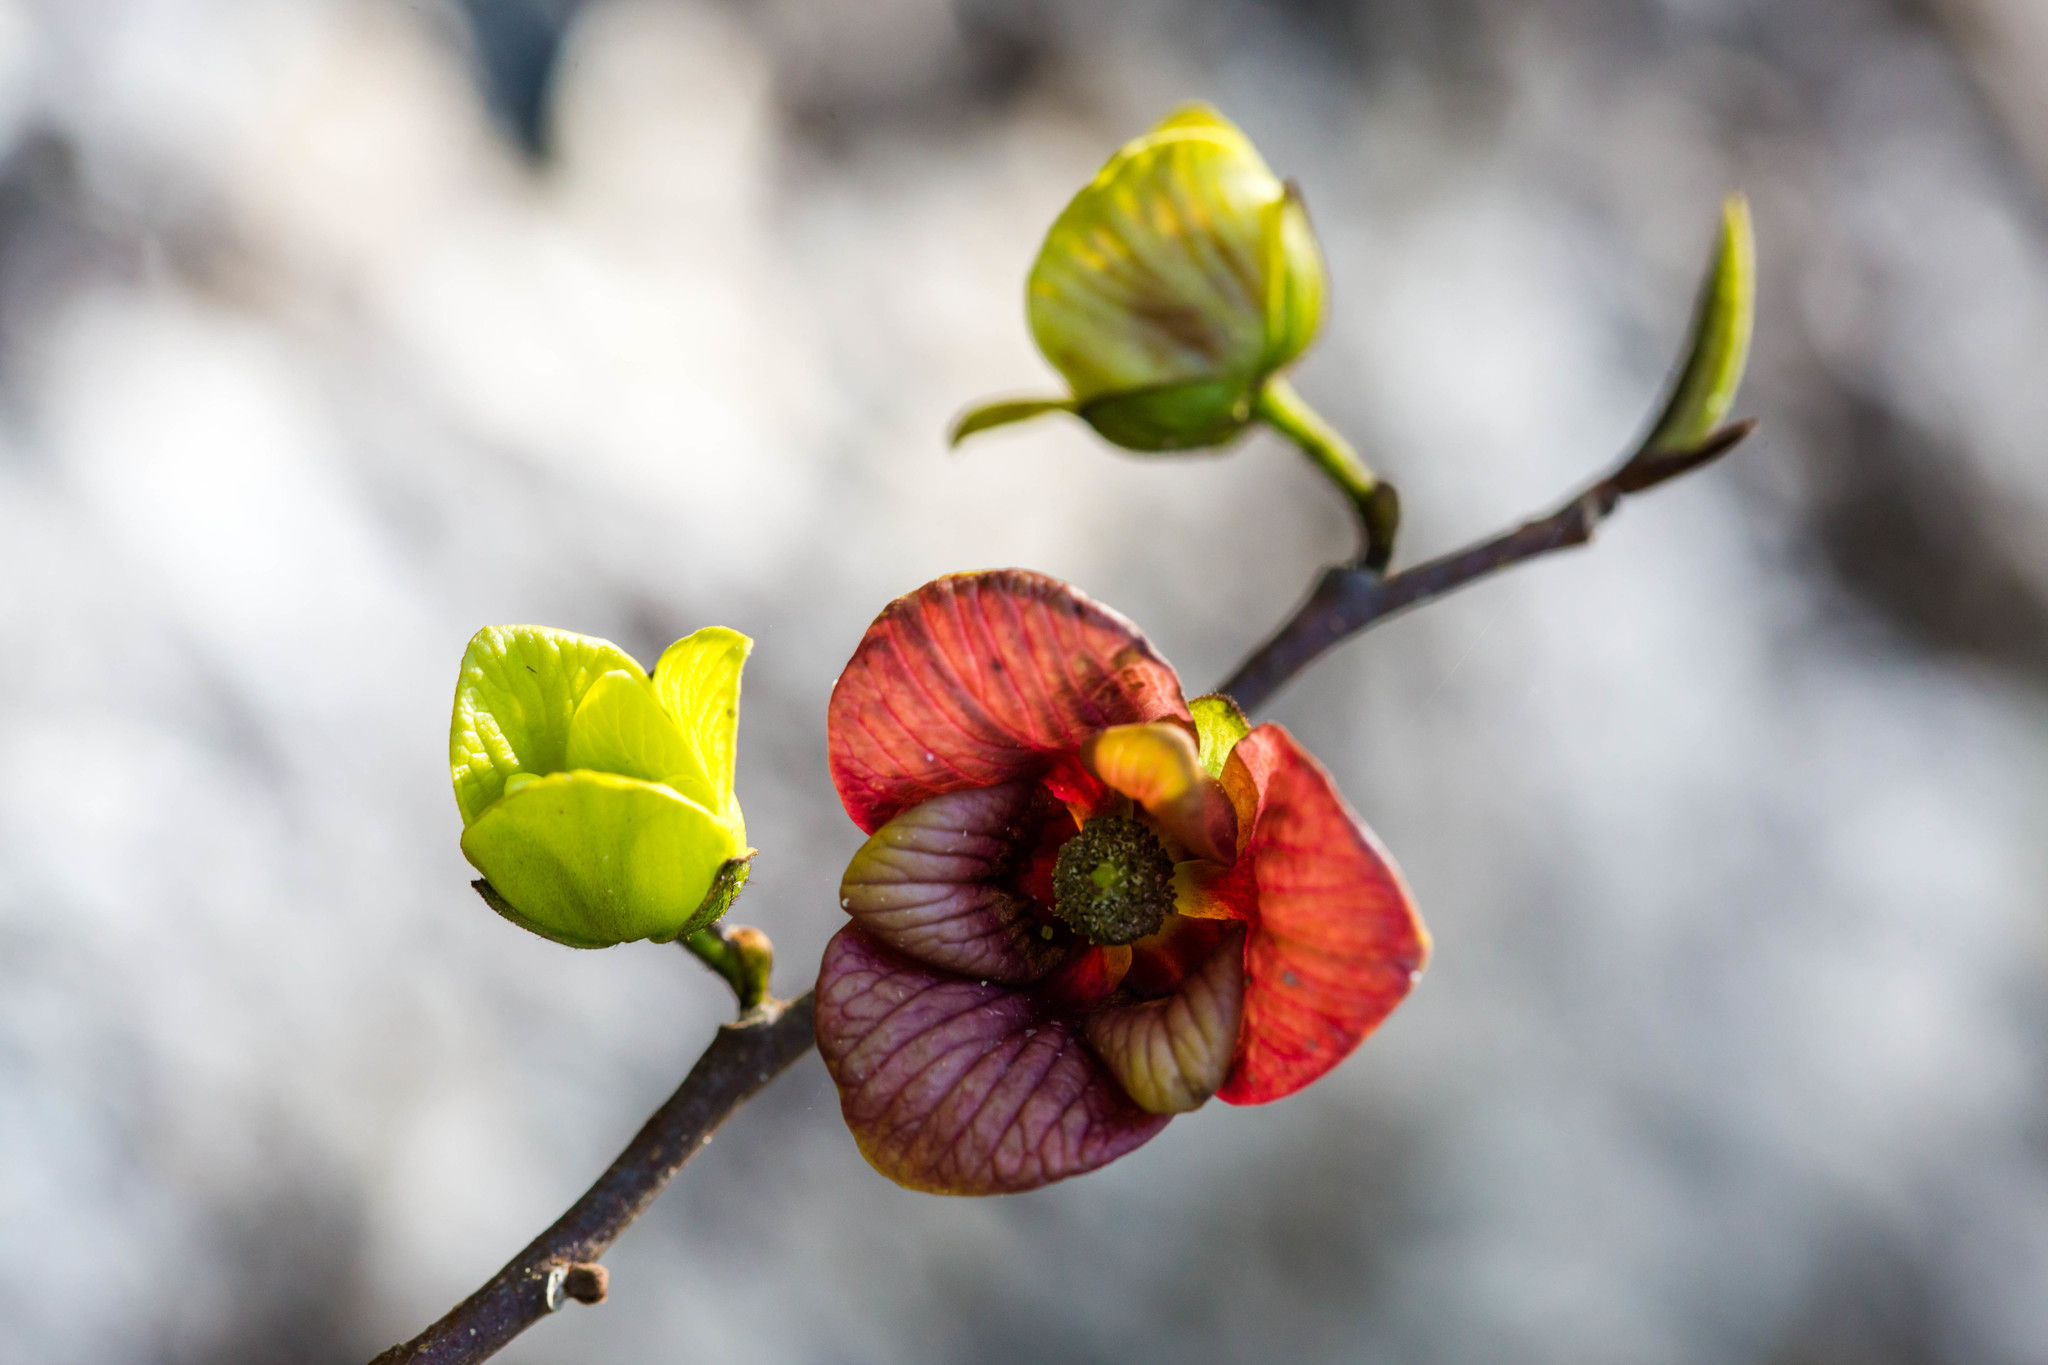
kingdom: Plantae
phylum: Tracheophyta
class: Magnoliopsida
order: Magnoliales
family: Annonaceae
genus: Asimina
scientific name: Asimina triloba
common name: Dog-banana
